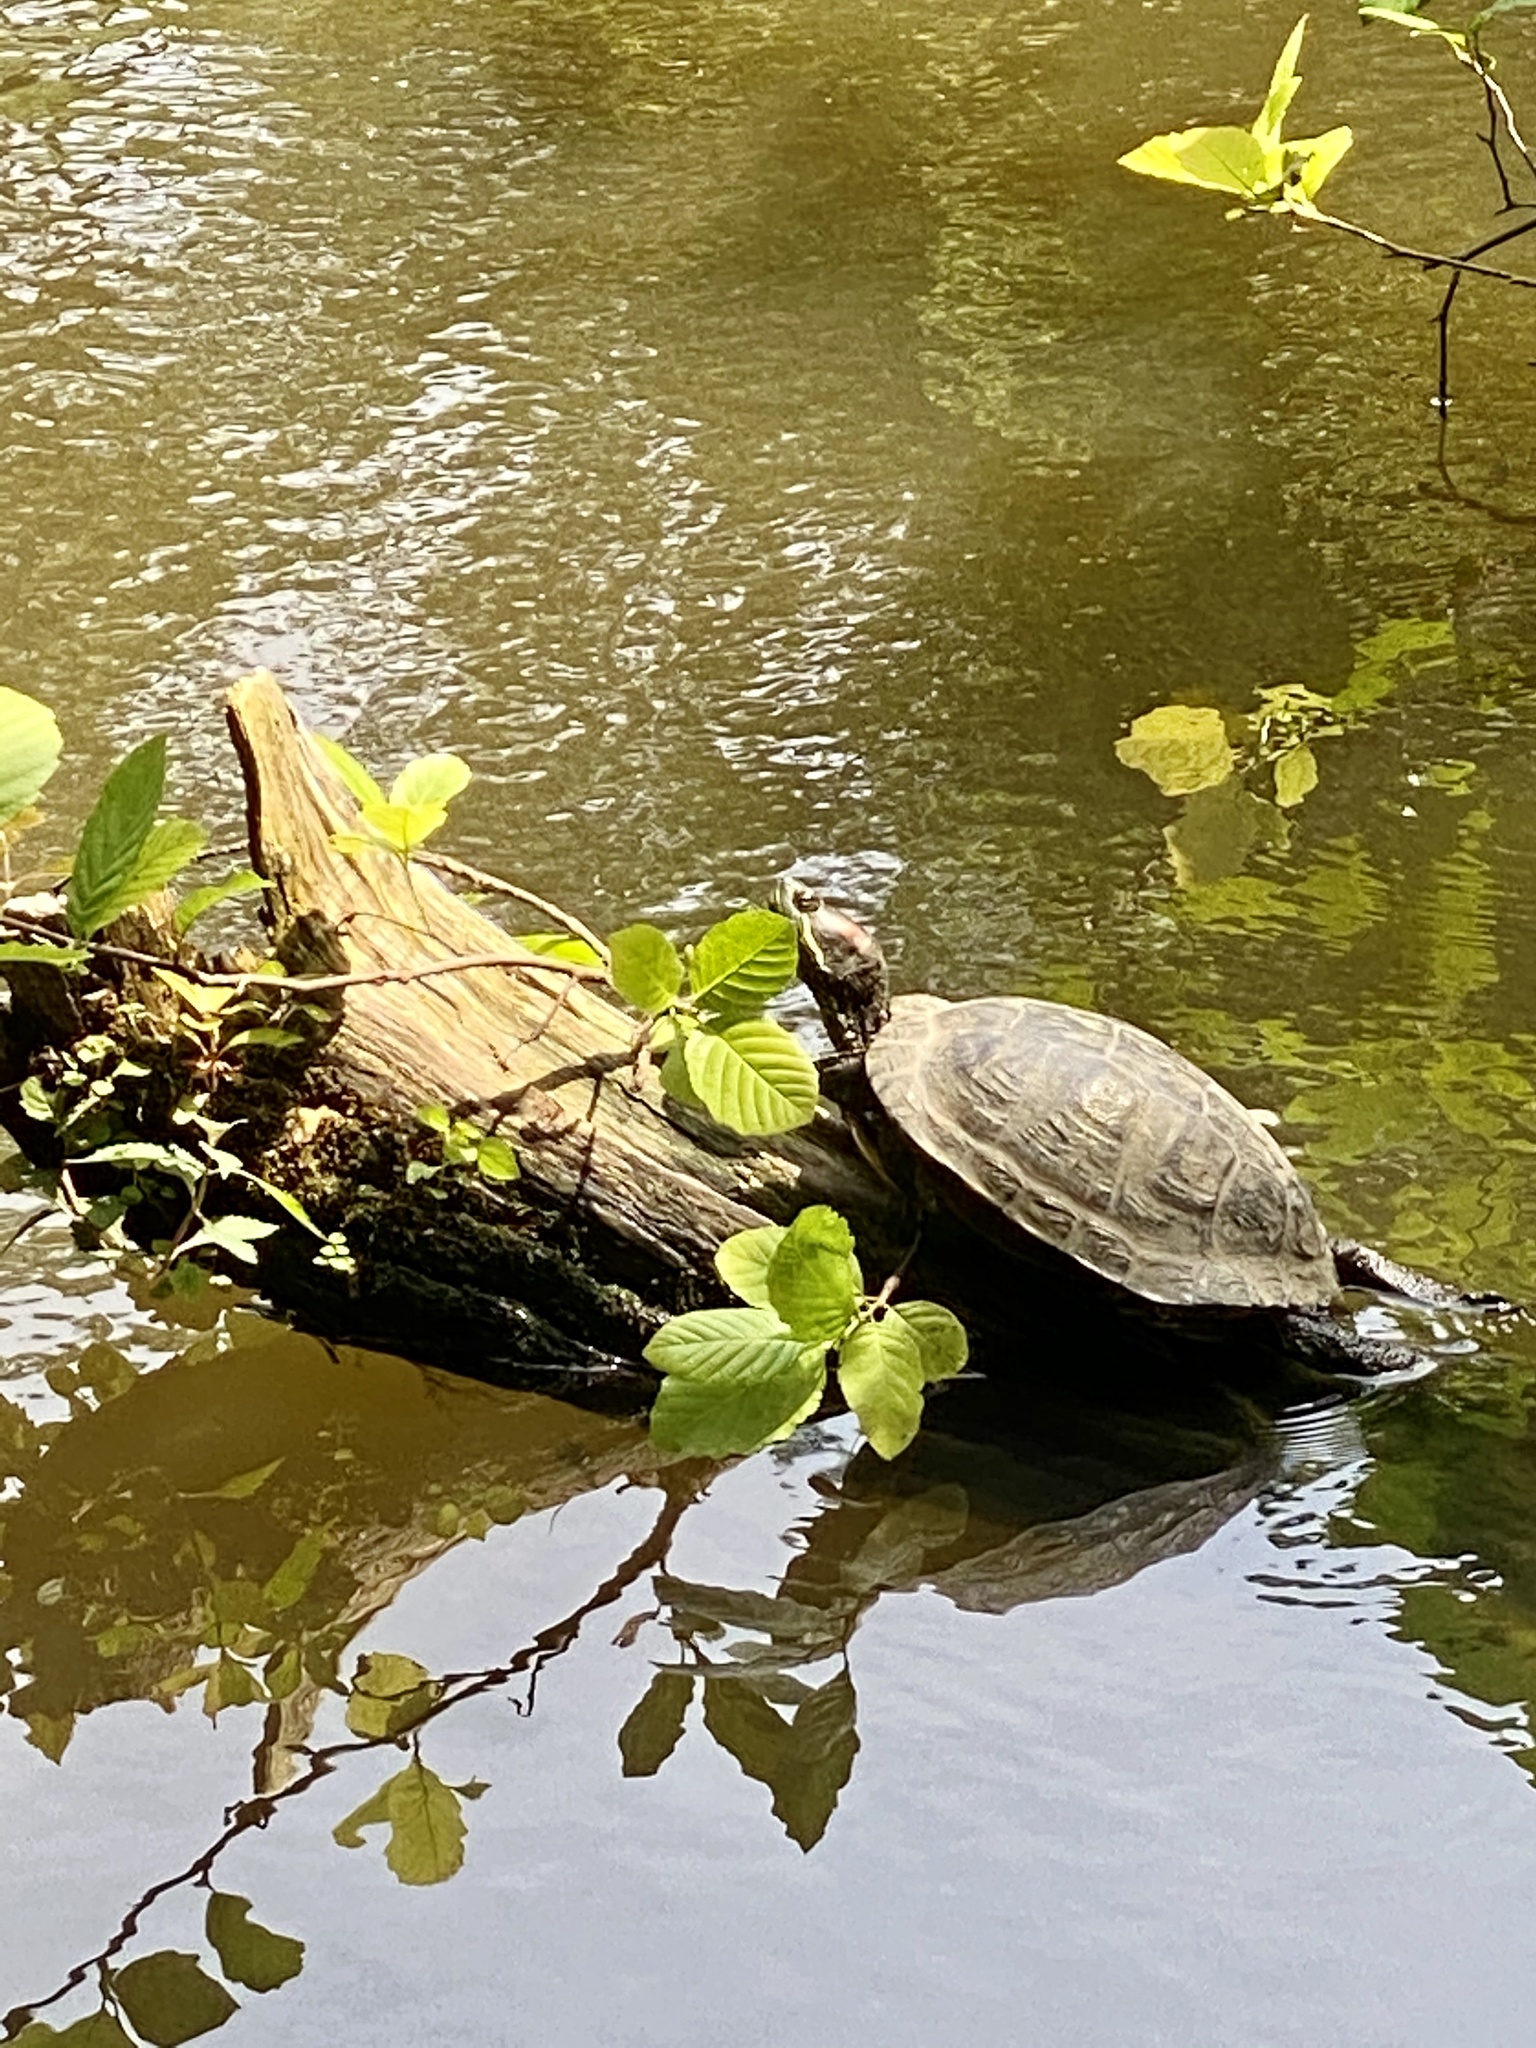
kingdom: Animalia
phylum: Chordata
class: Testudines
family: Emydidae
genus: Trachemys
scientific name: Trachemys scripta
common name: Slider
